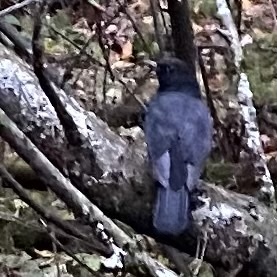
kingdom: Animalia
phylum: Chordata
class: Aves
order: Passeriformes
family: Turdidae
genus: Turdus
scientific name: Turdus merula
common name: Common blackbird
